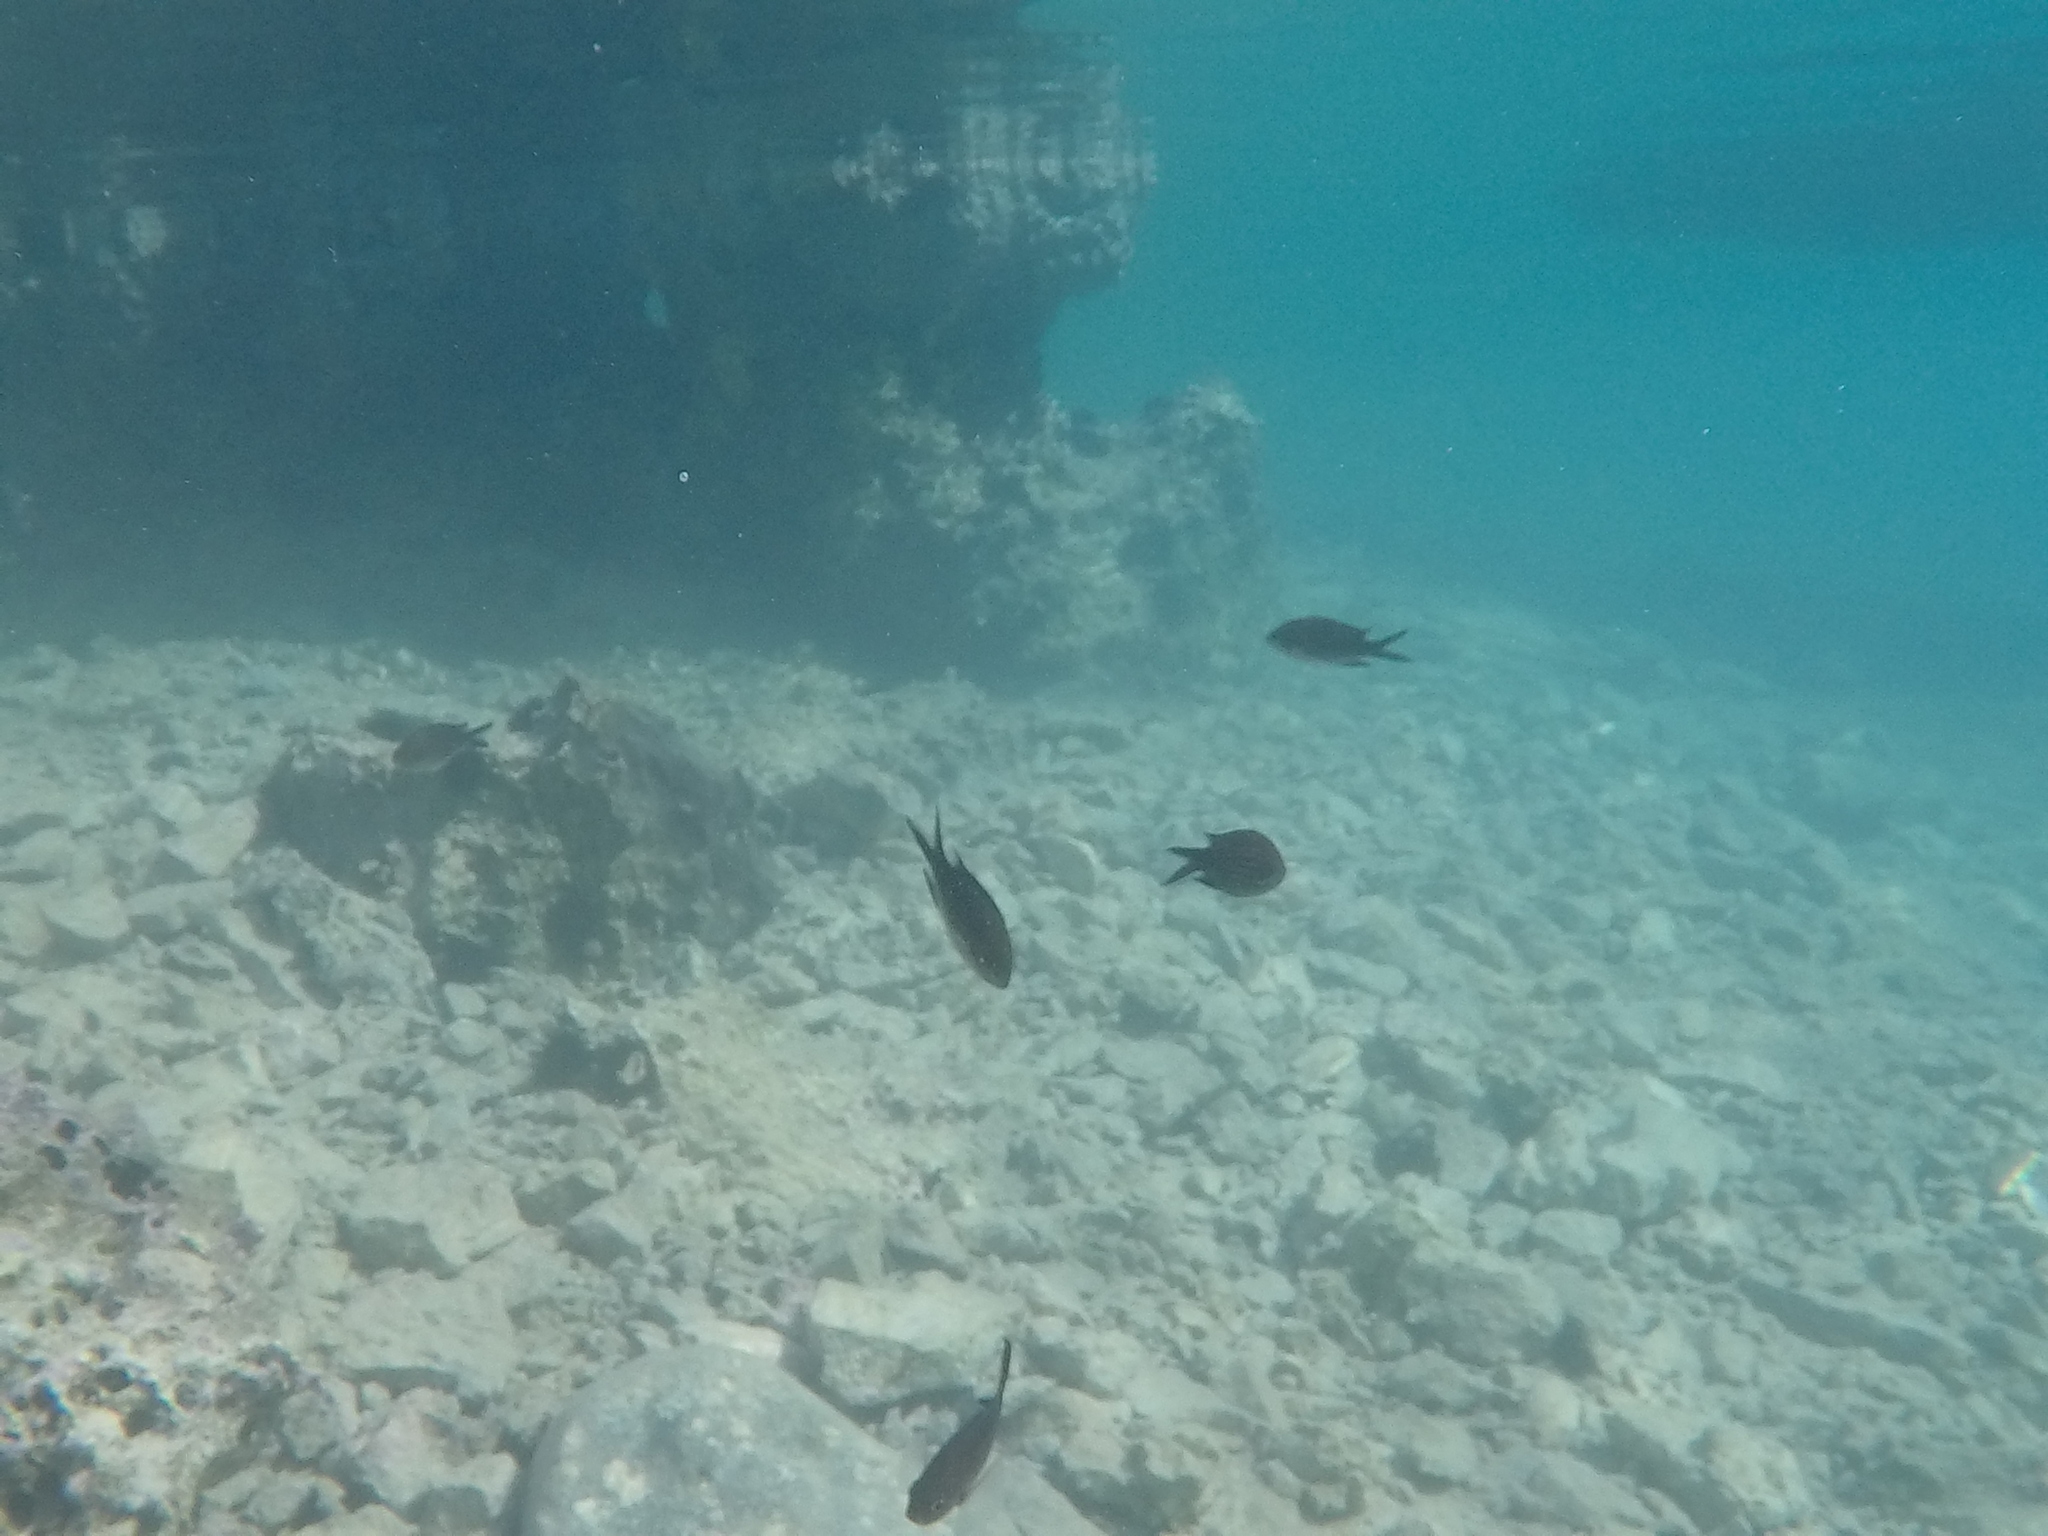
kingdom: Animalia
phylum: Chordata
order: Perciformes
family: Pomacentridae
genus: Chromis
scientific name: Chromis chromis
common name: Damselfish
